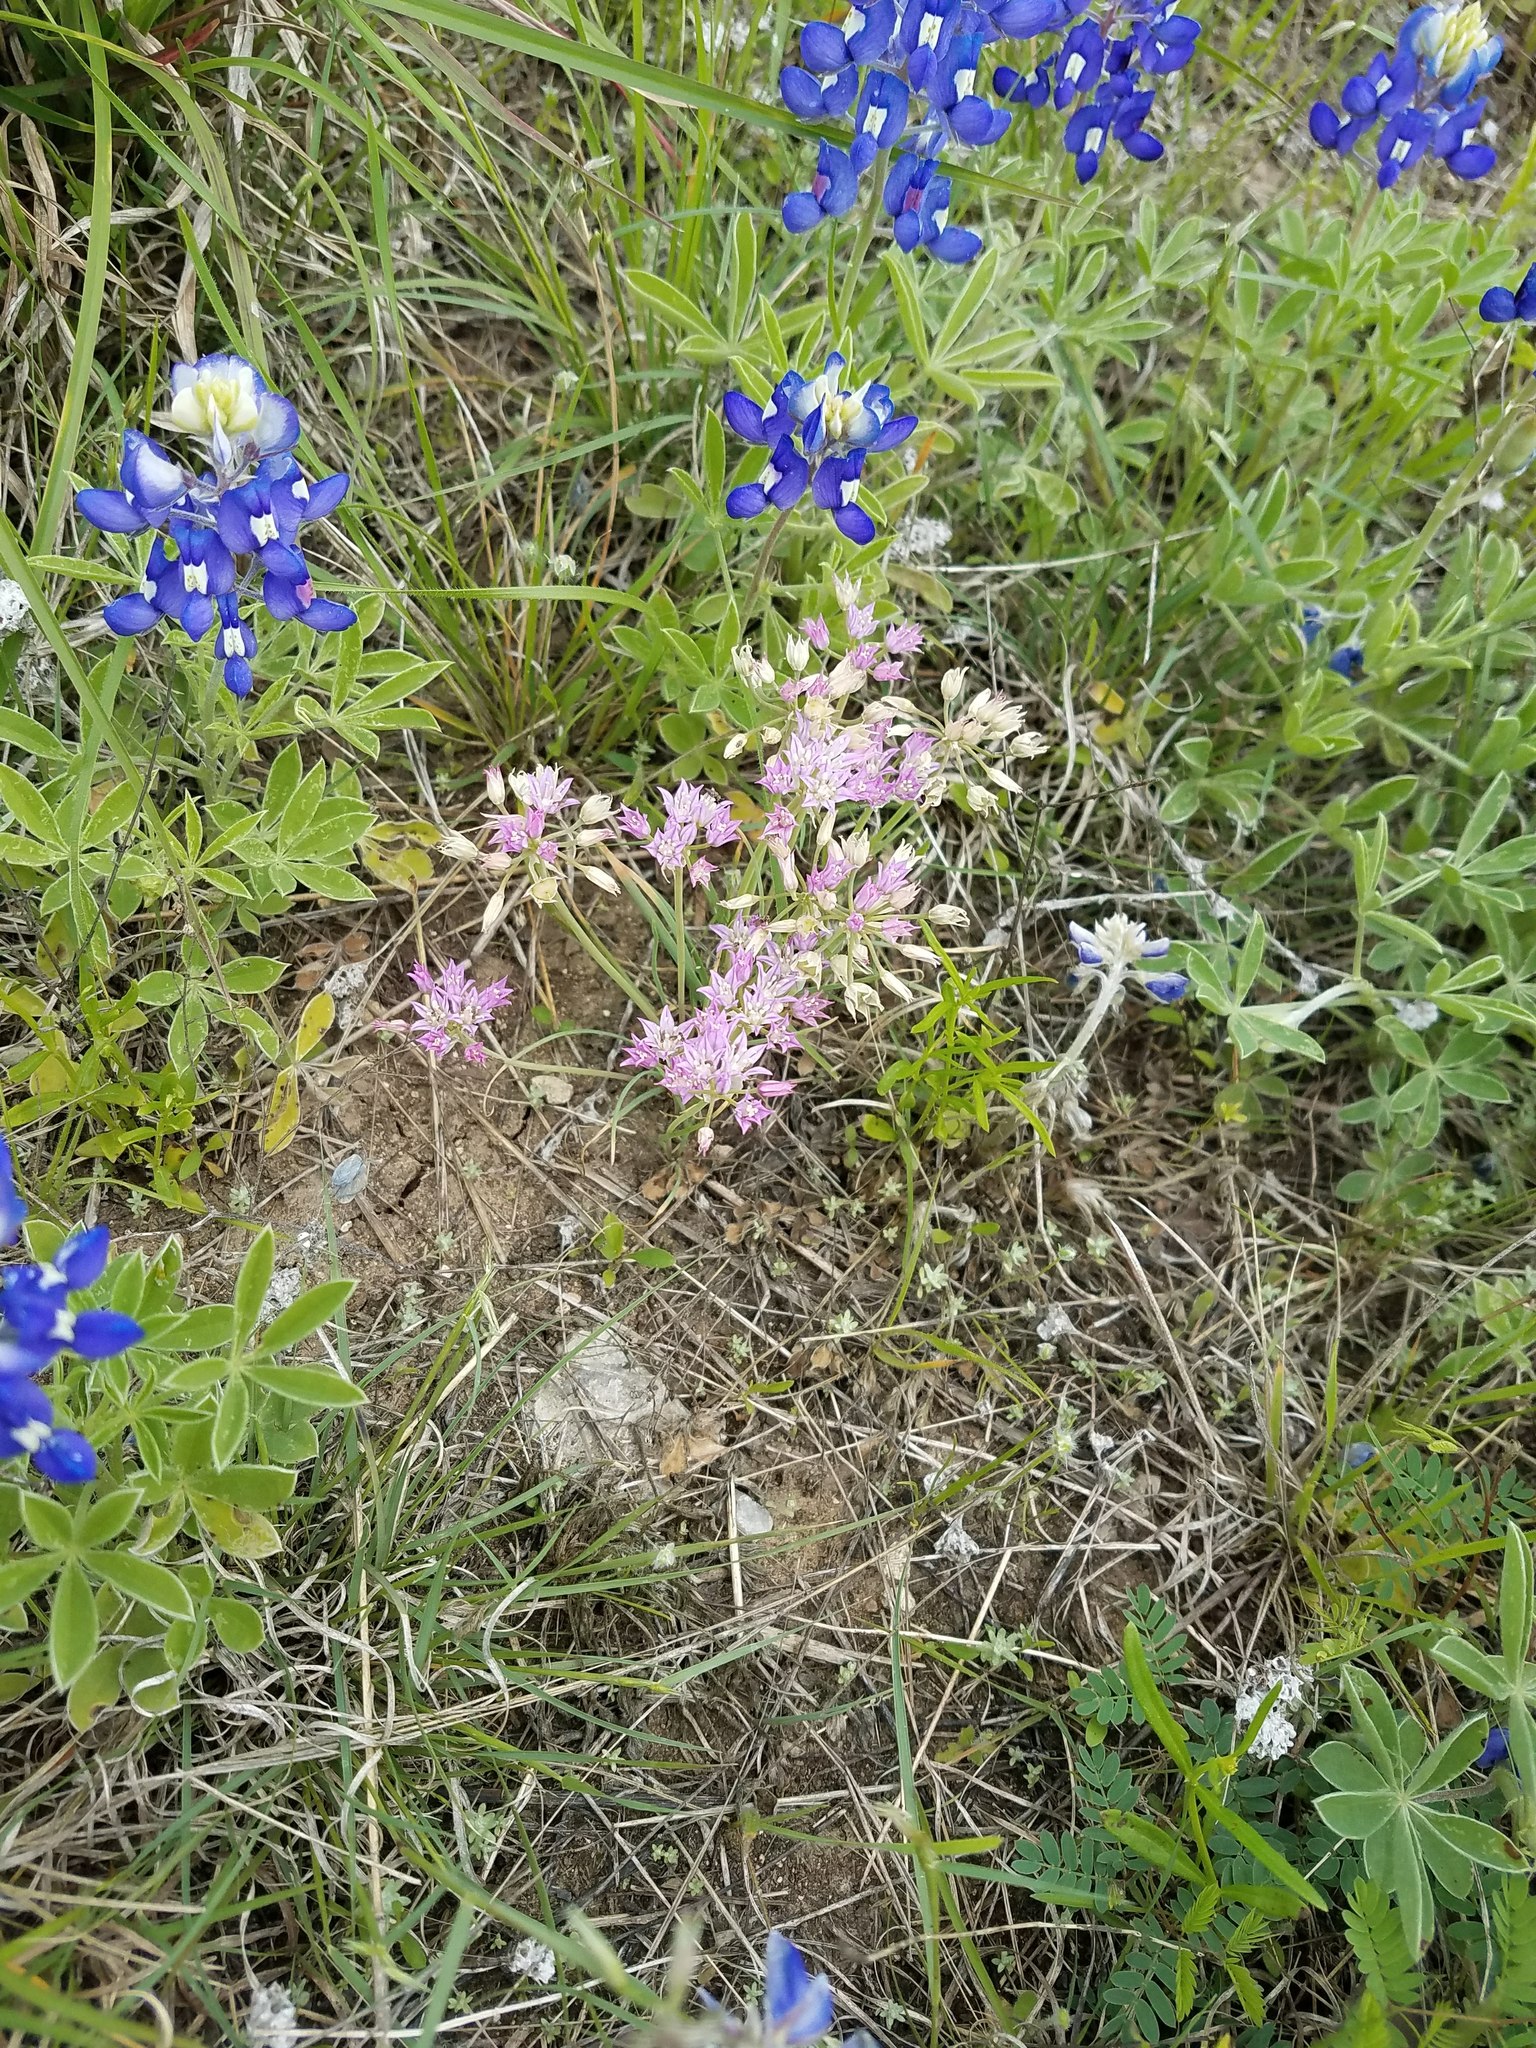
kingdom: Plantae
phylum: Tracheophyta
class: Magnoliopsida
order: Fabales
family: Fabaceae
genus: Lupinus
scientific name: Lupinus texensis
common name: Texas bluebonnet
